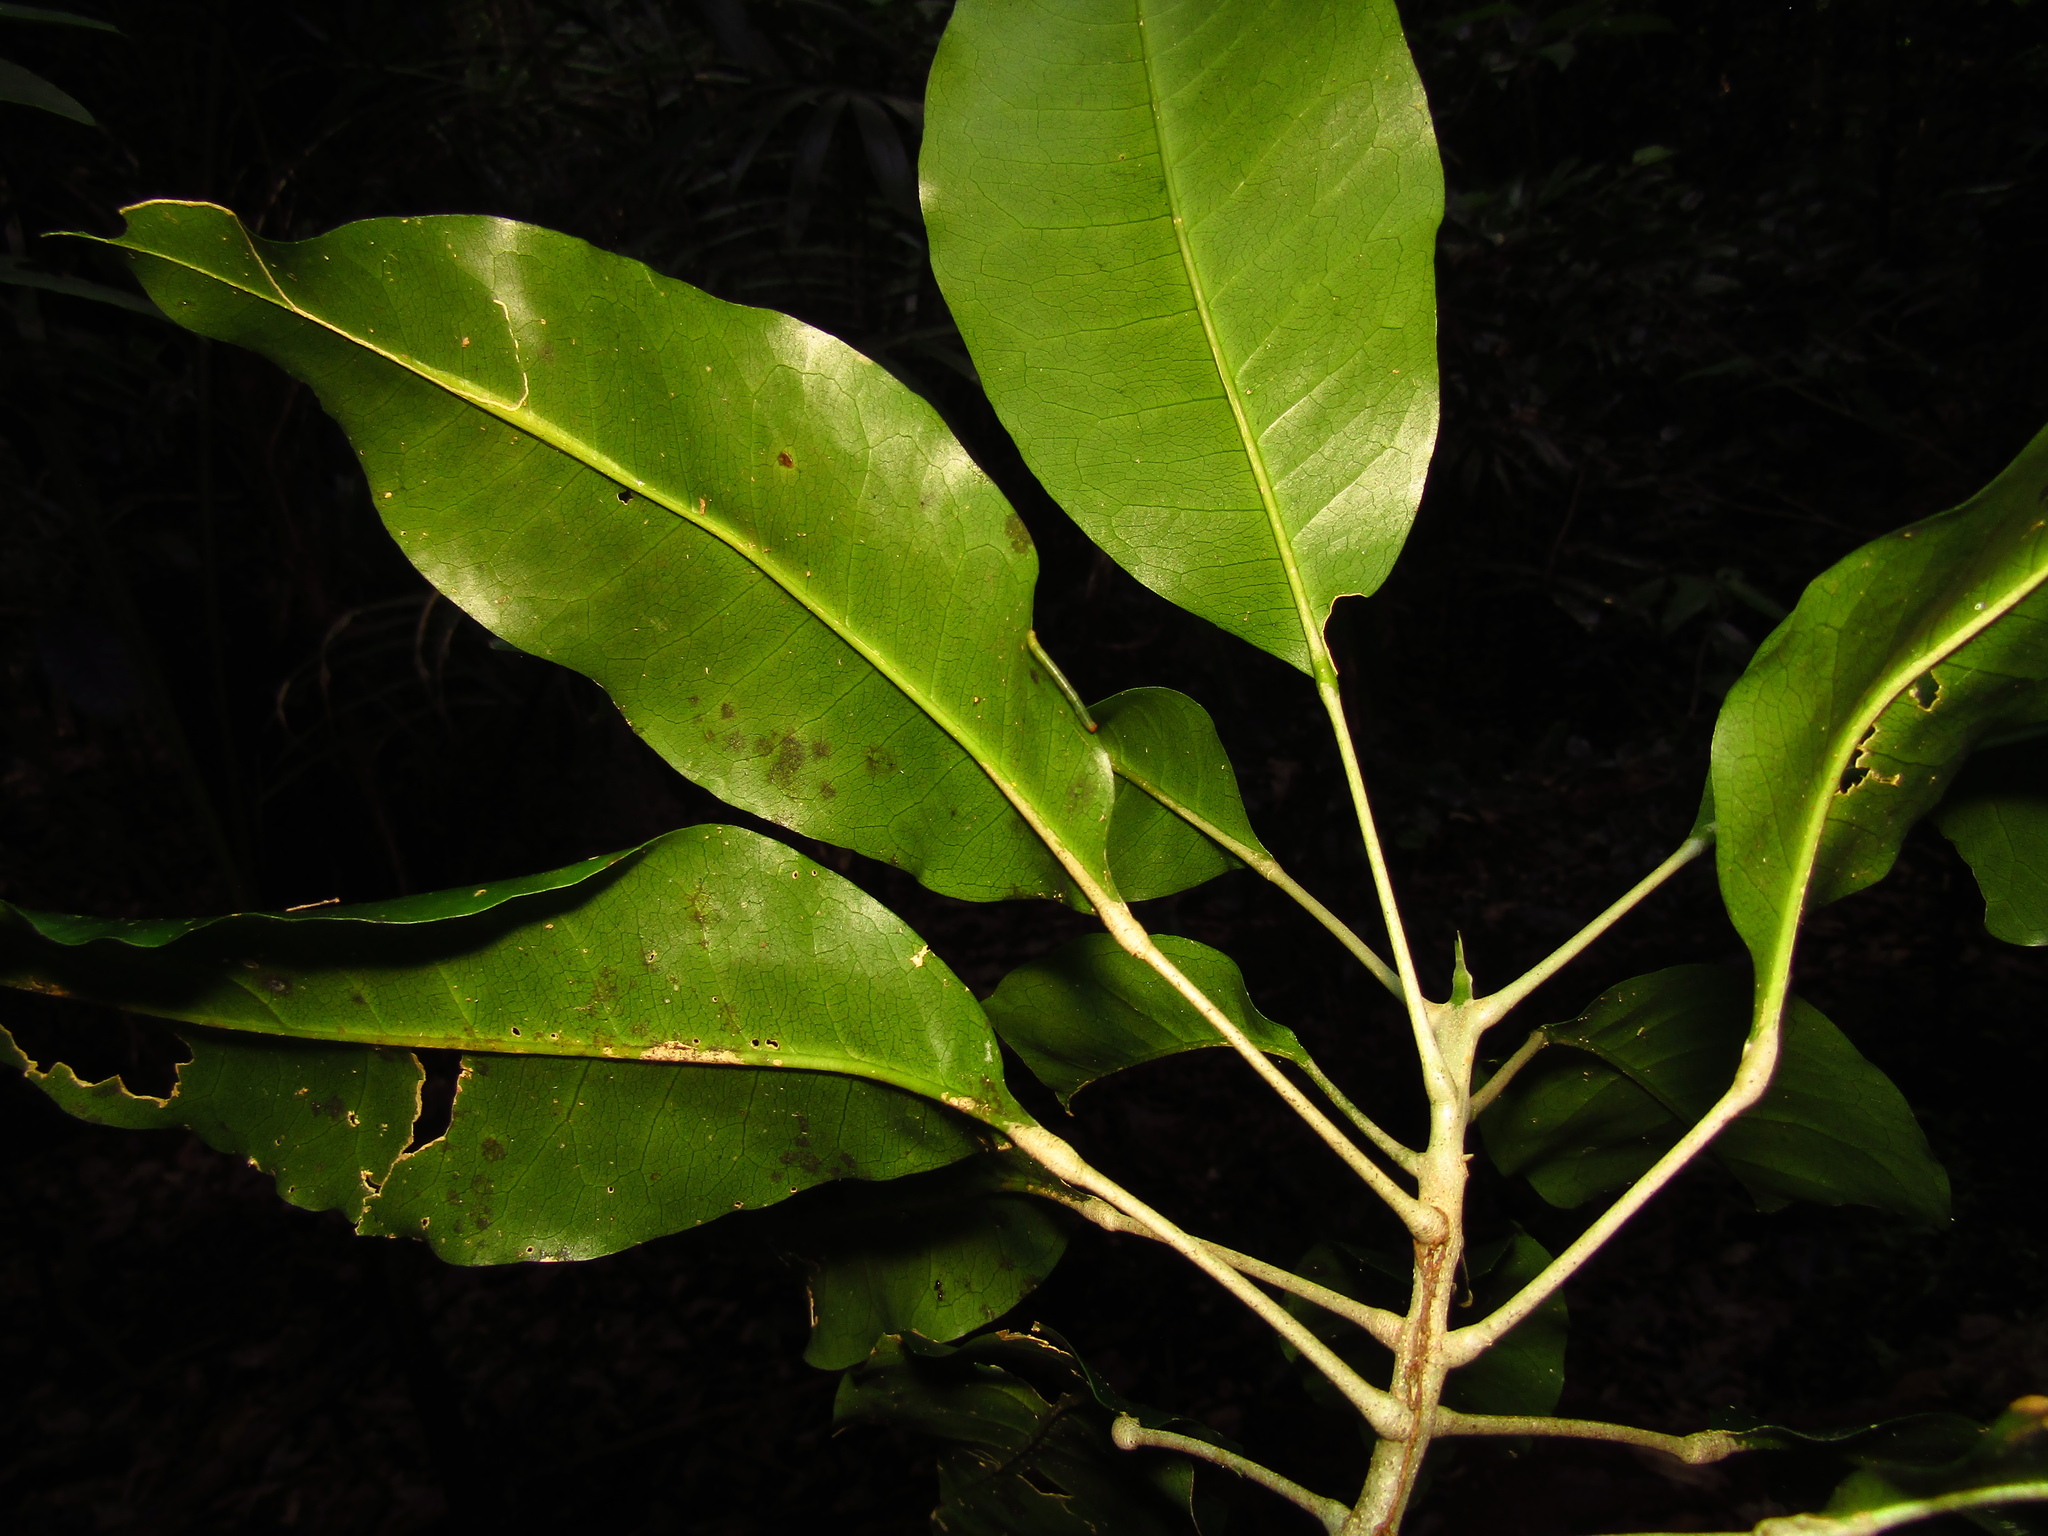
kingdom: Plantae
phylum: Tracheophyta
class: Magnoliopsida
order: Sapindales
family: Rutaceae
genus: Sarcomelicope
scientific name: Sarcomelicope simplicifolia
